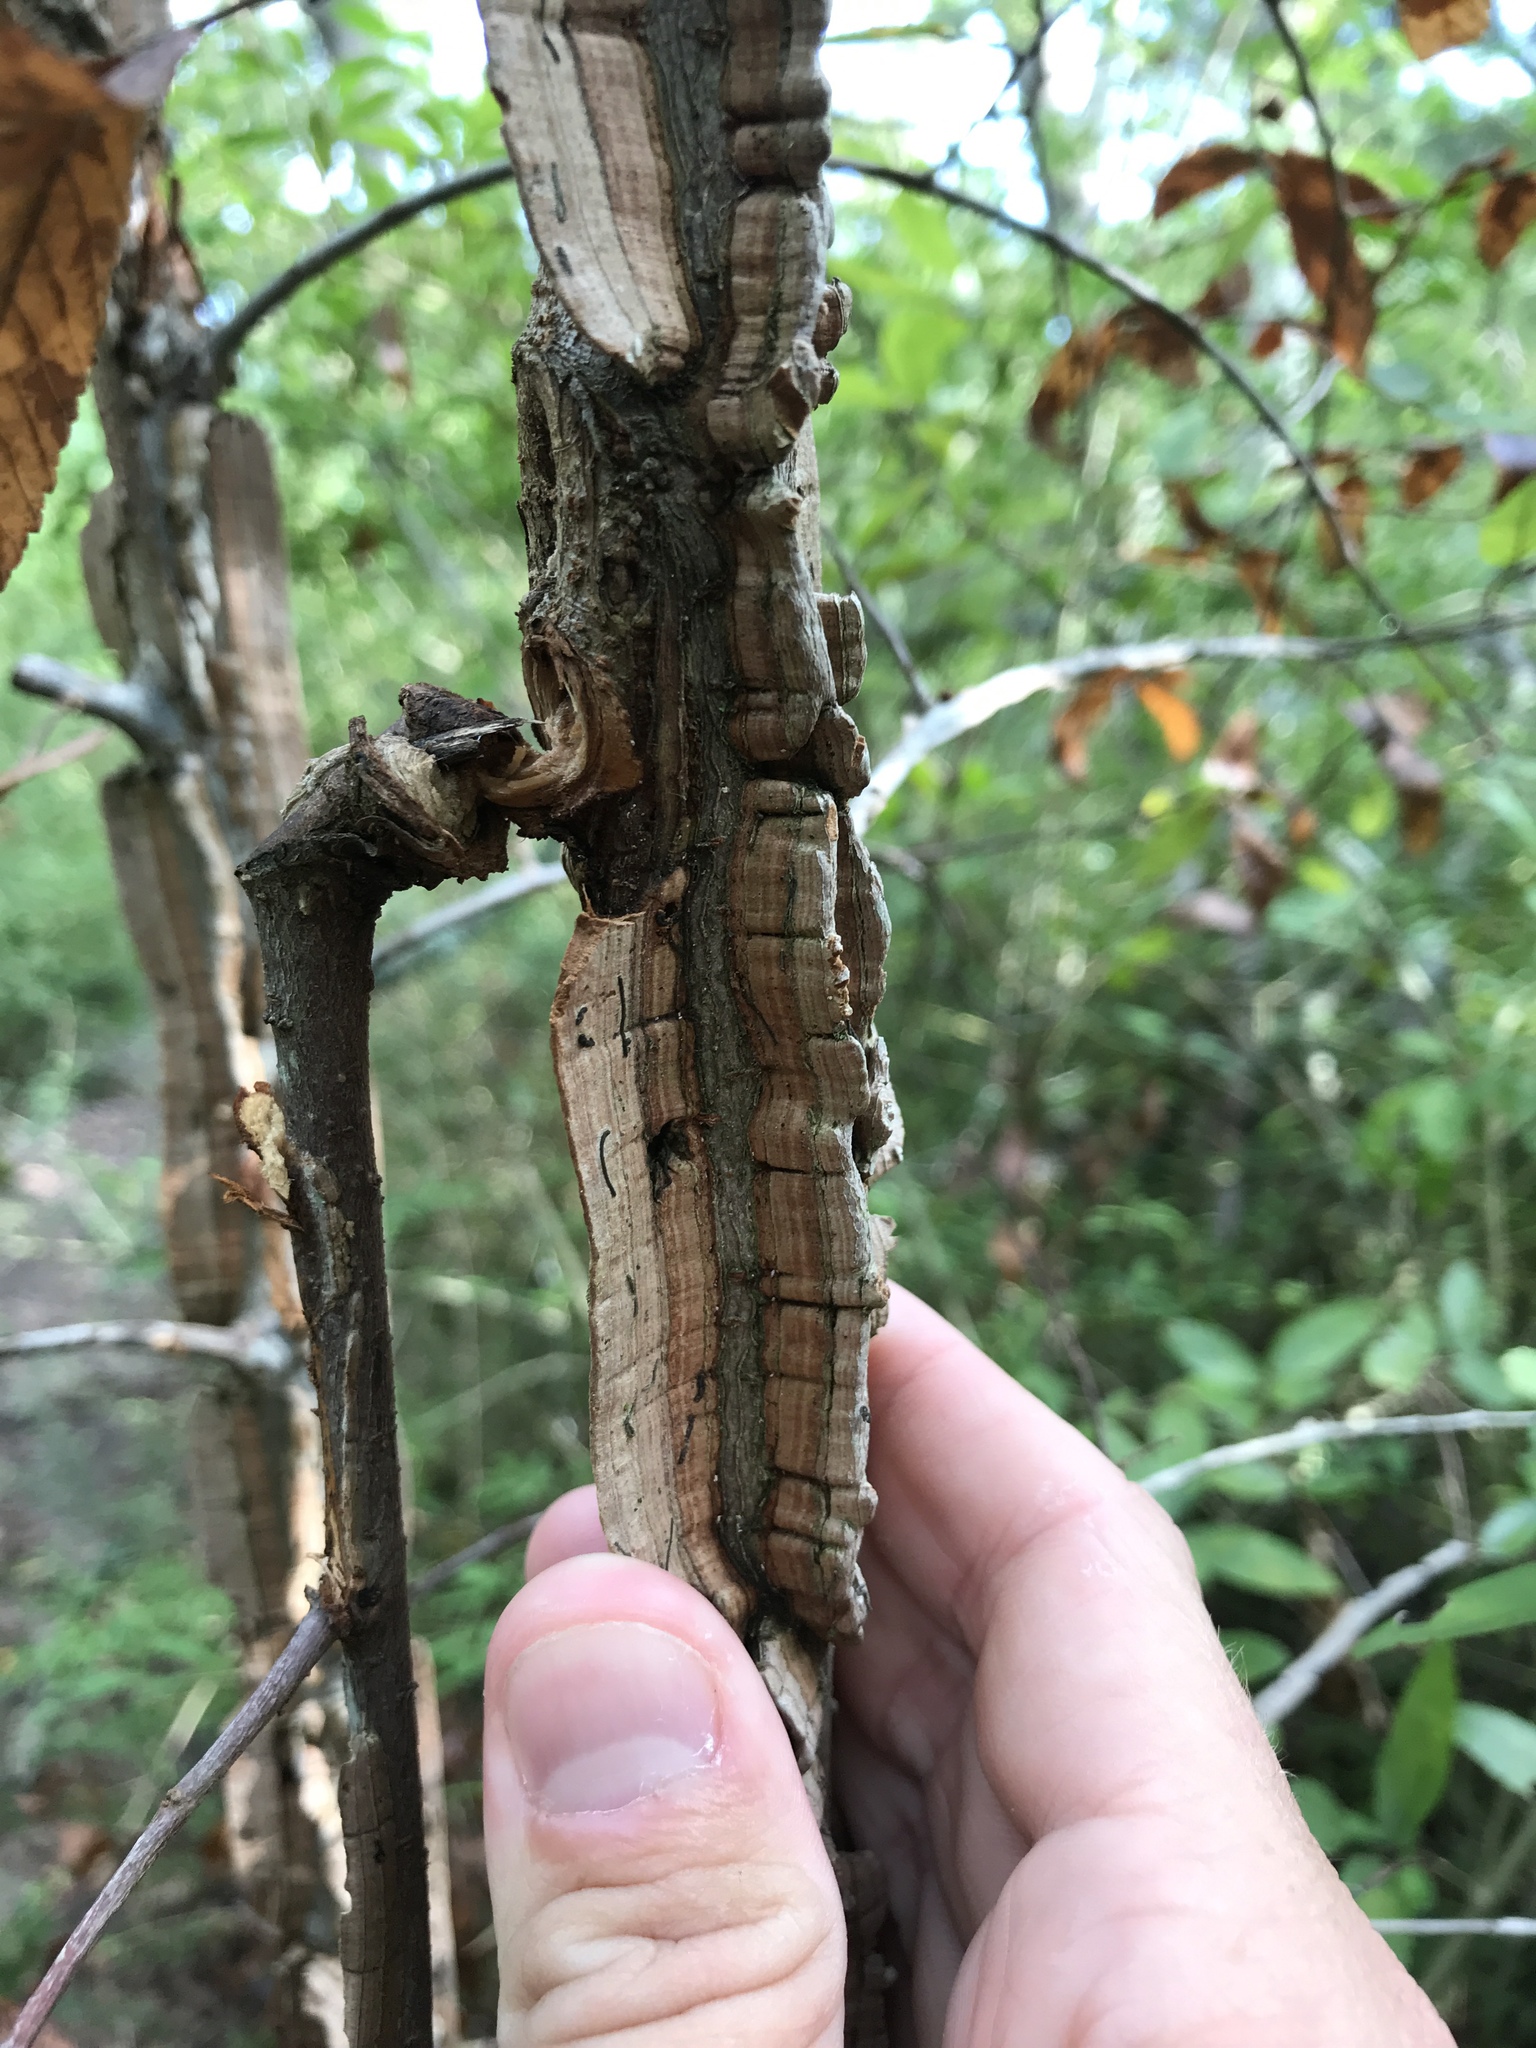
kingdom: Plantae
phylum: Tracheophyta
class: Magnoliopsida
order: Rosales
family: Ulmaceae
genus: Ulmus
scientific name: Ulmus alata
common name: Winged elm
